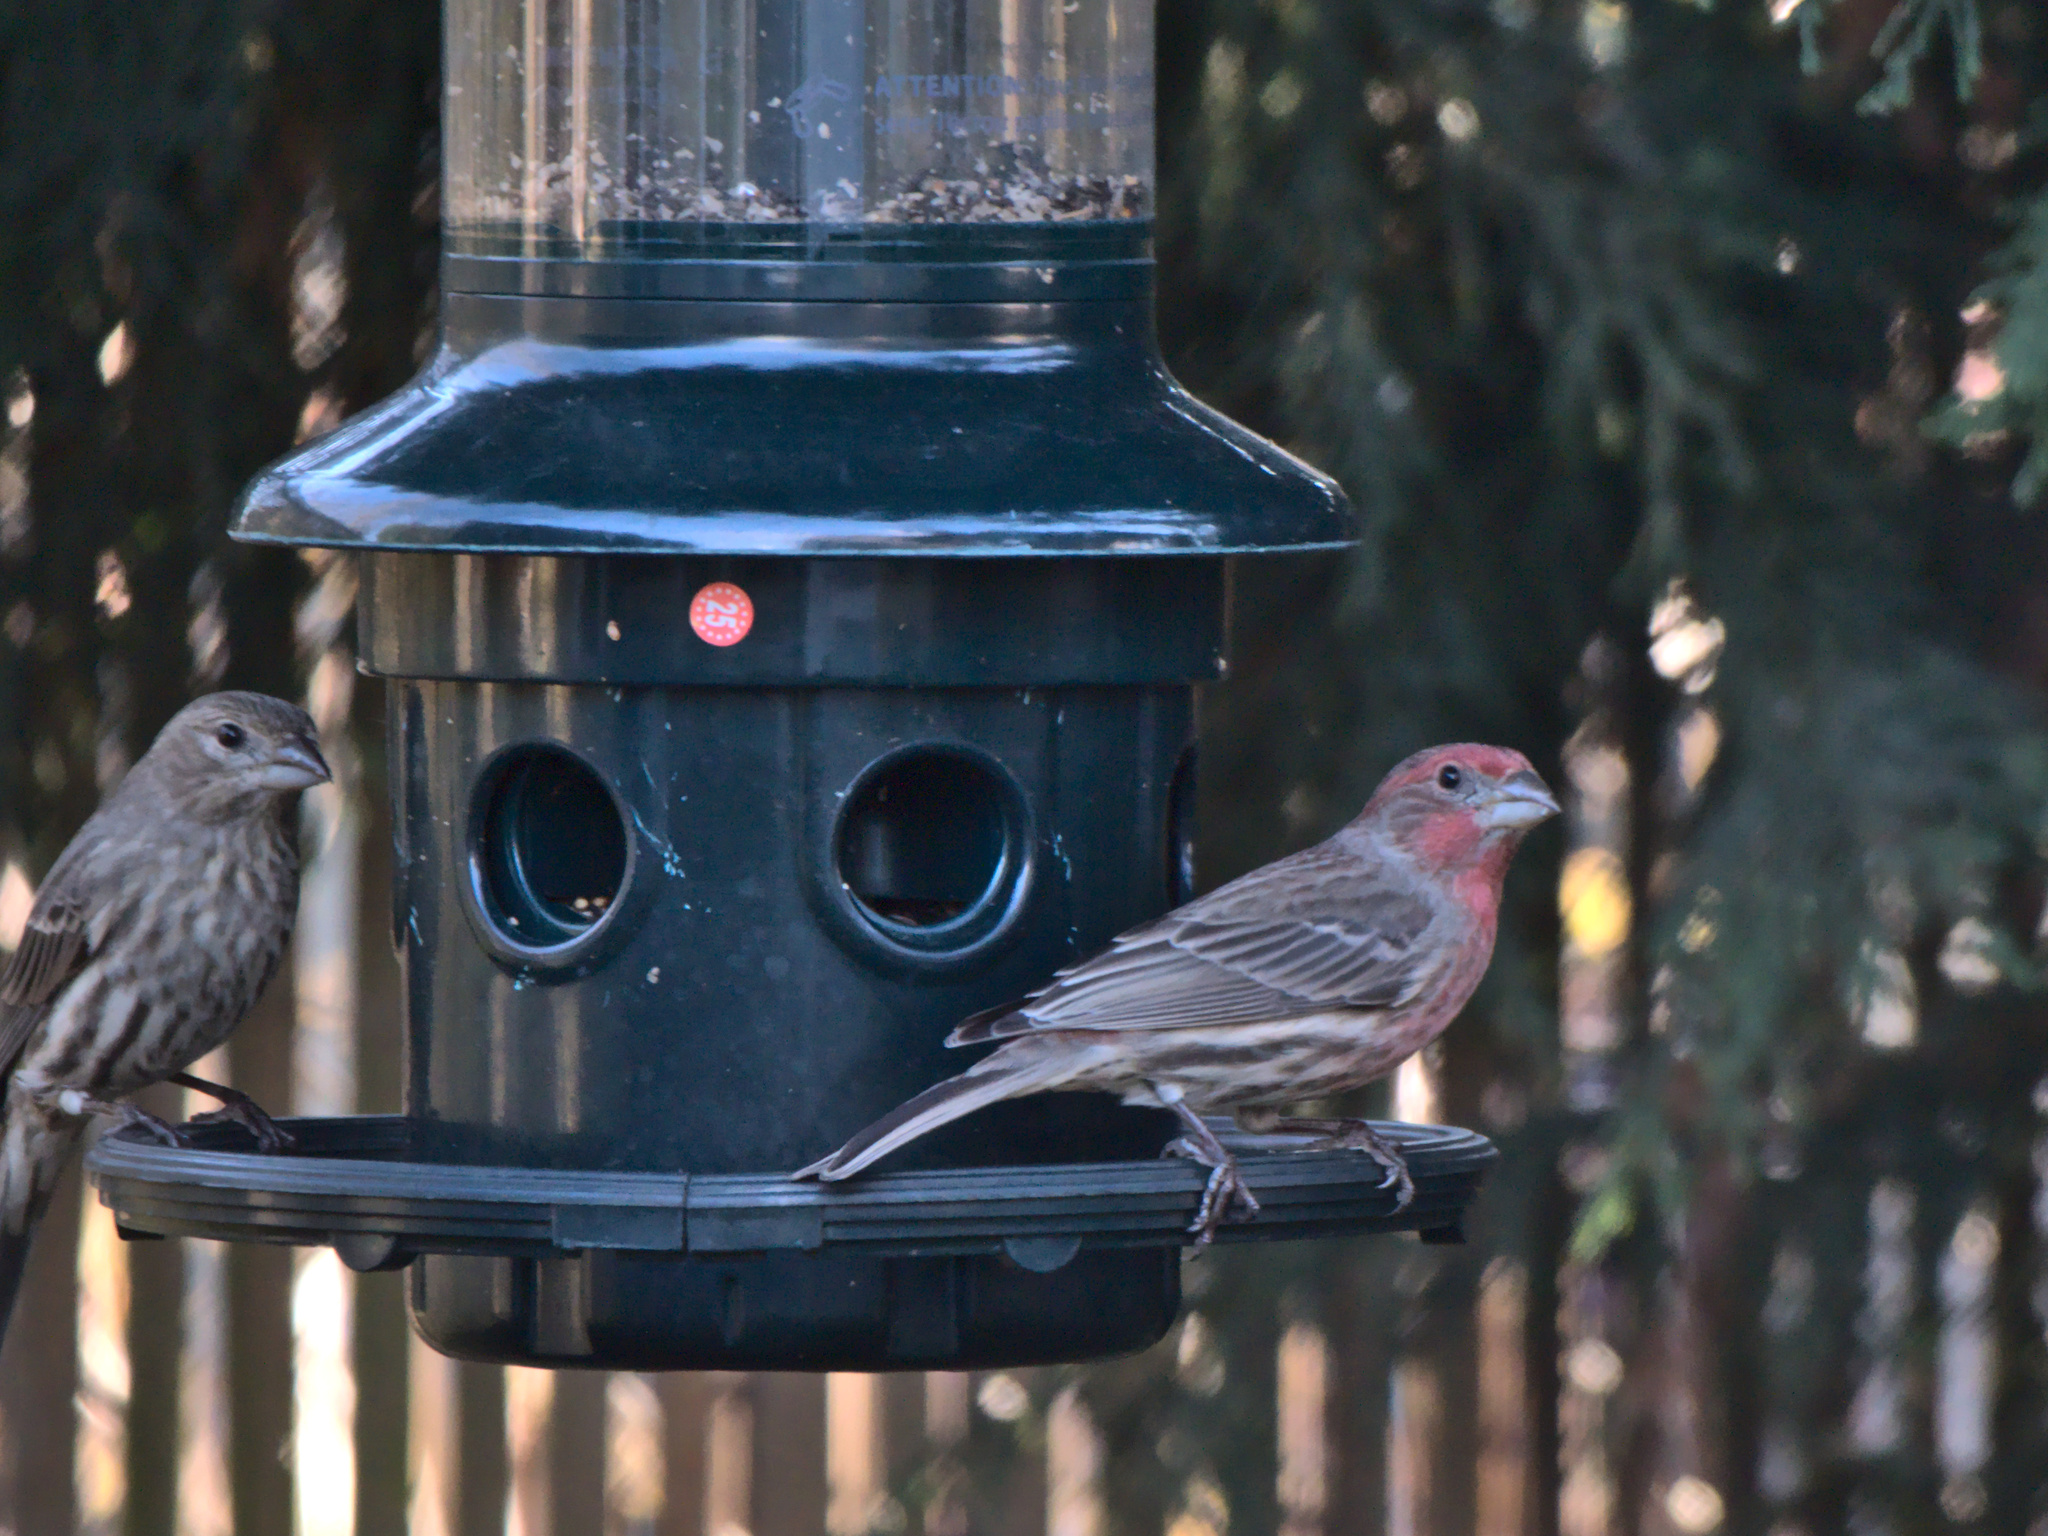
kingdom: Animalia
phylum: Chordata
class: Aves
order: Passeriformes
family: Fringillidae
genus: Haemorhous
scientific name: Haemorhous mexicanus
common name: House finch
